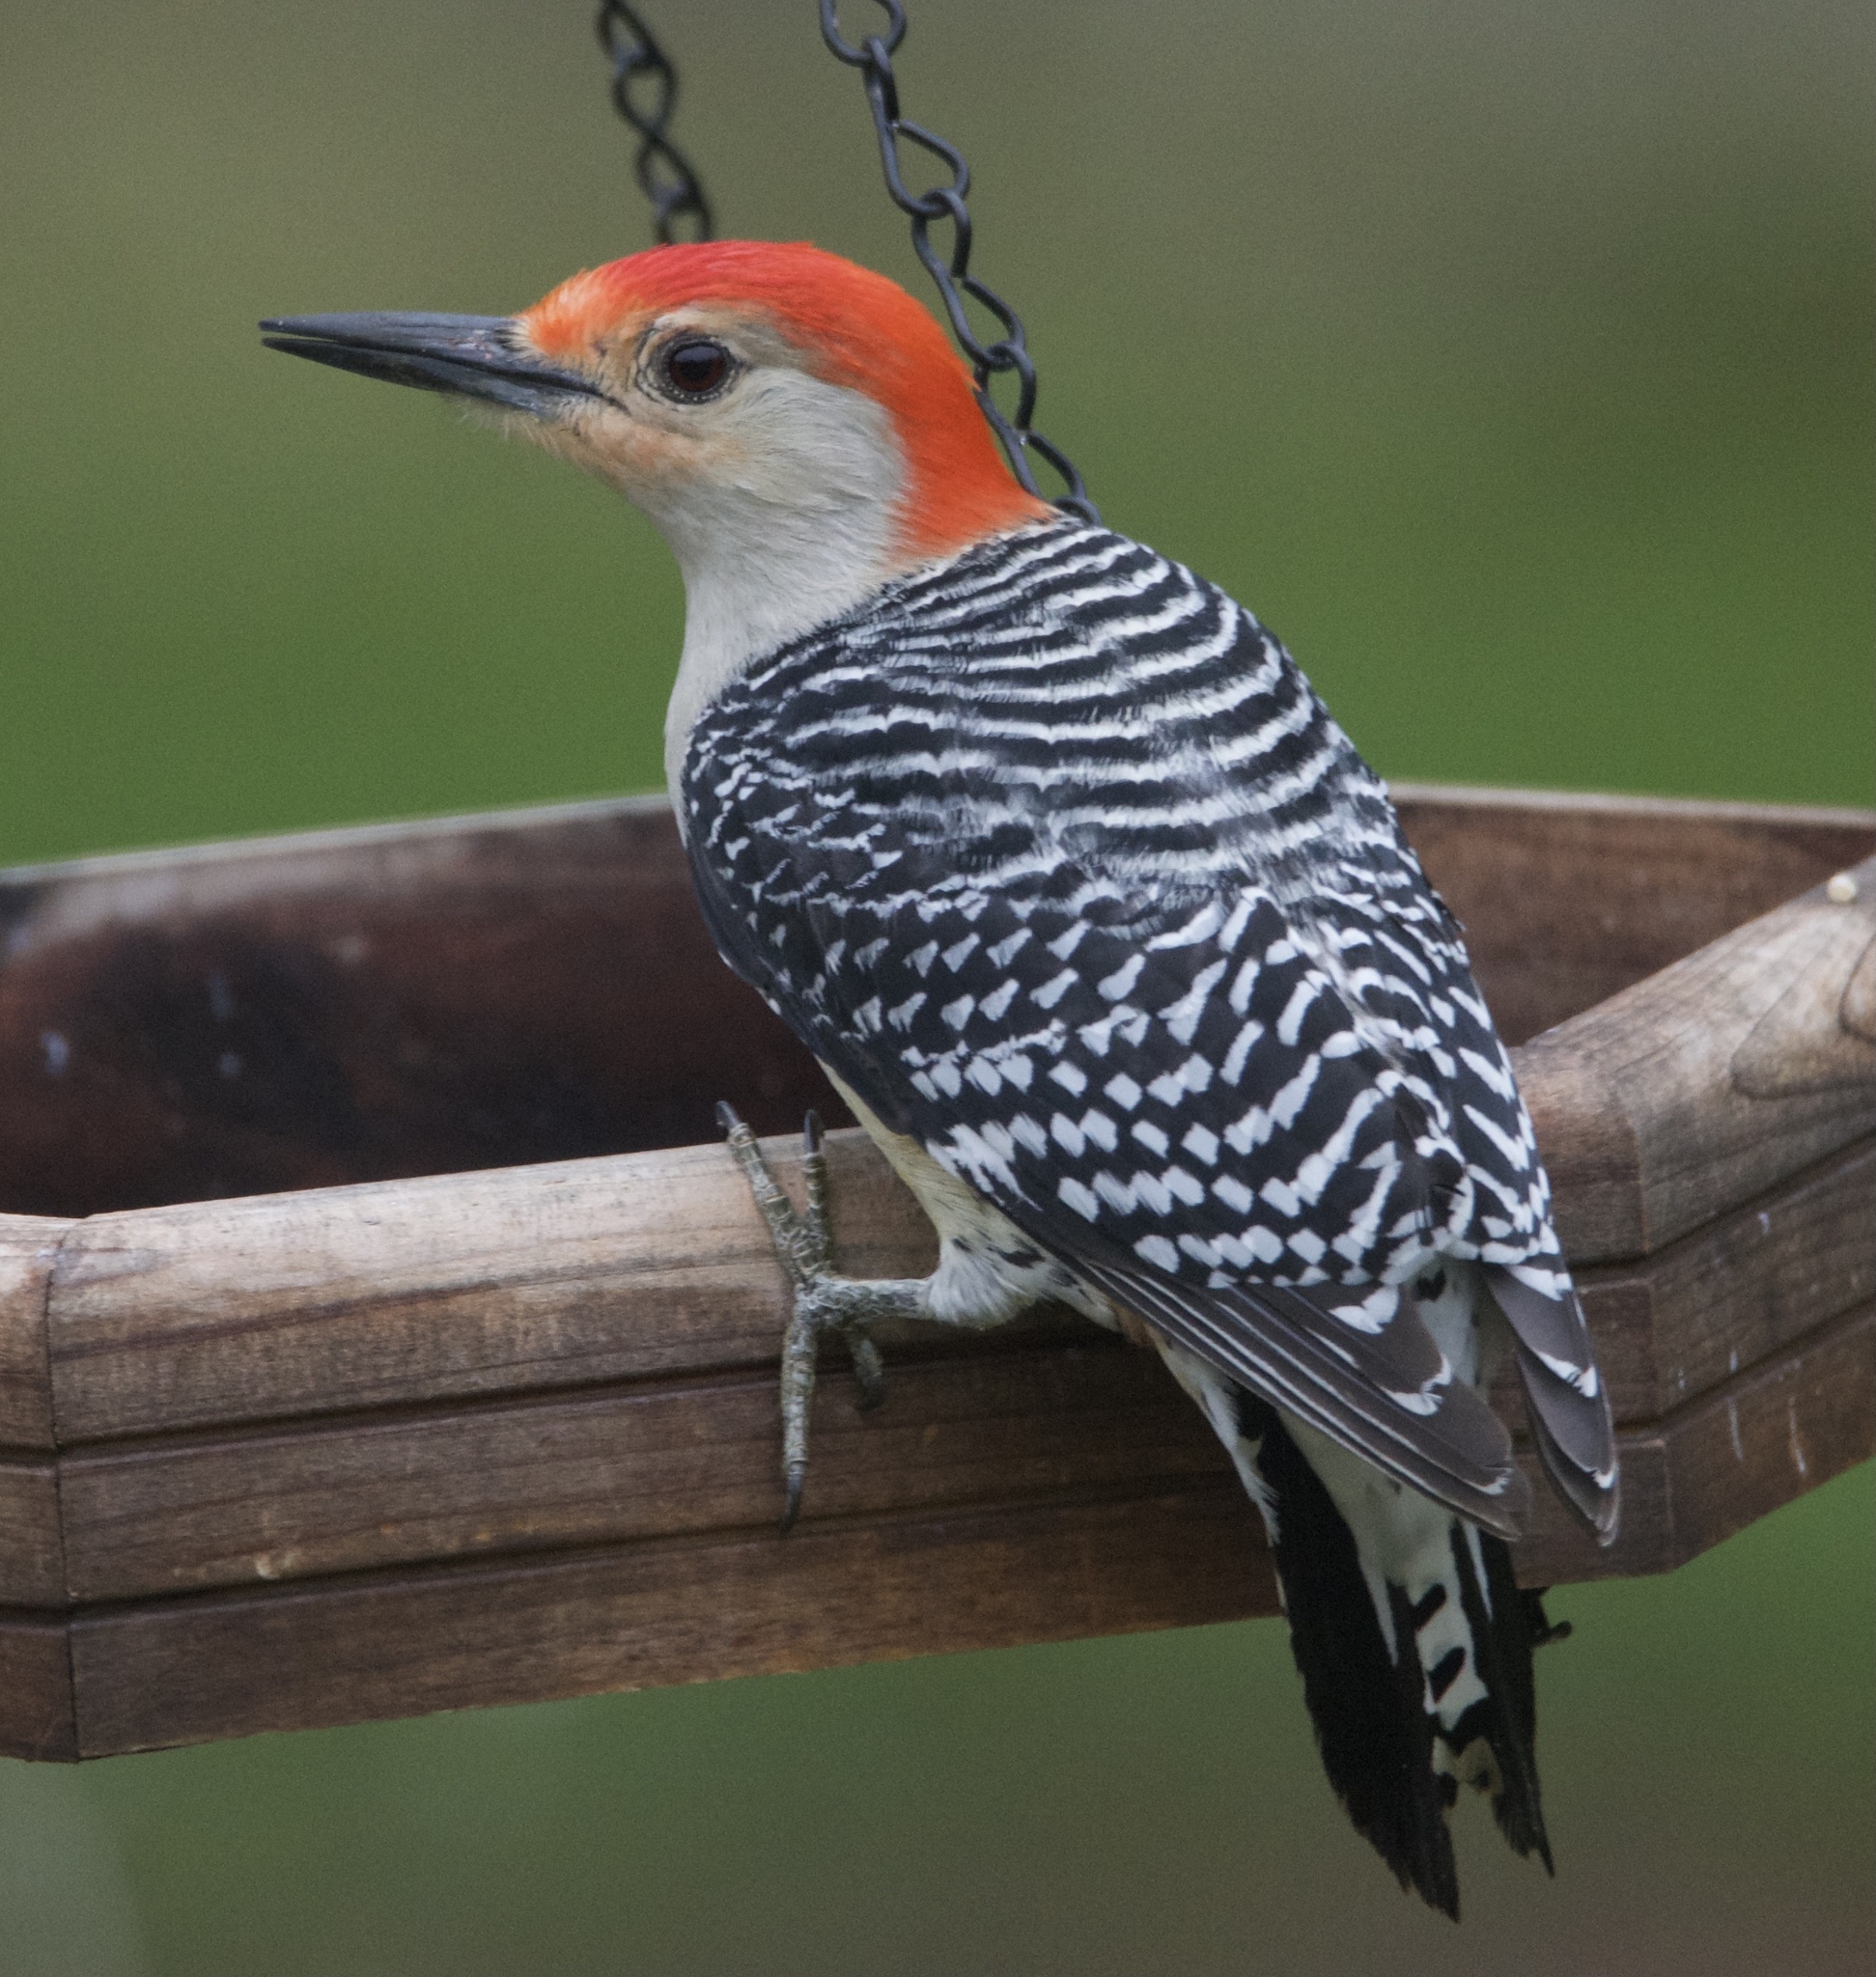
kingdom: Animalia
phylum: Chordata
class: Aves
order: Piciformes
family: Picidae
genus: Melanerpes
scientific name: Melanerpes carolinus
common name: Red-bellied woodpecker
